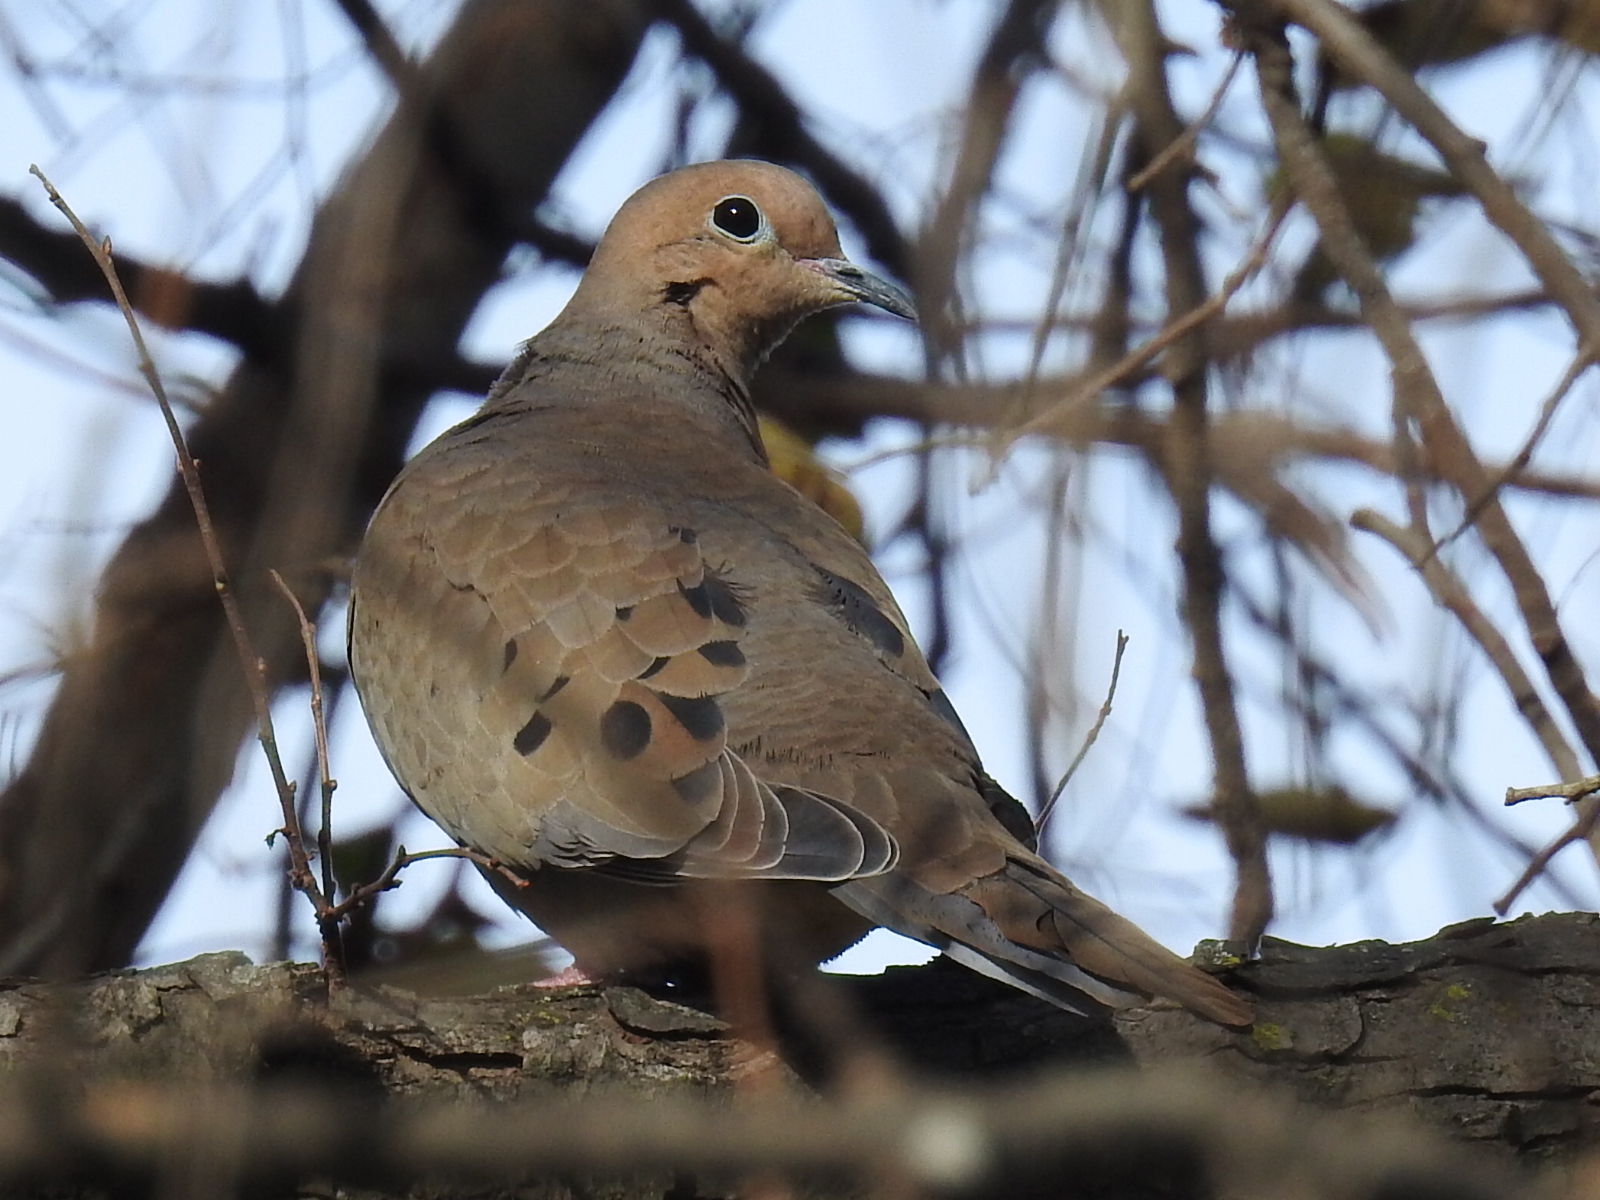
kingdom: Animalia
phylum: Chordata
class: Aves
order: Columbiformes
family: Columbidae
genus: Zenaida
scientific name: Zenaida macroura
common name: Mourning dove
